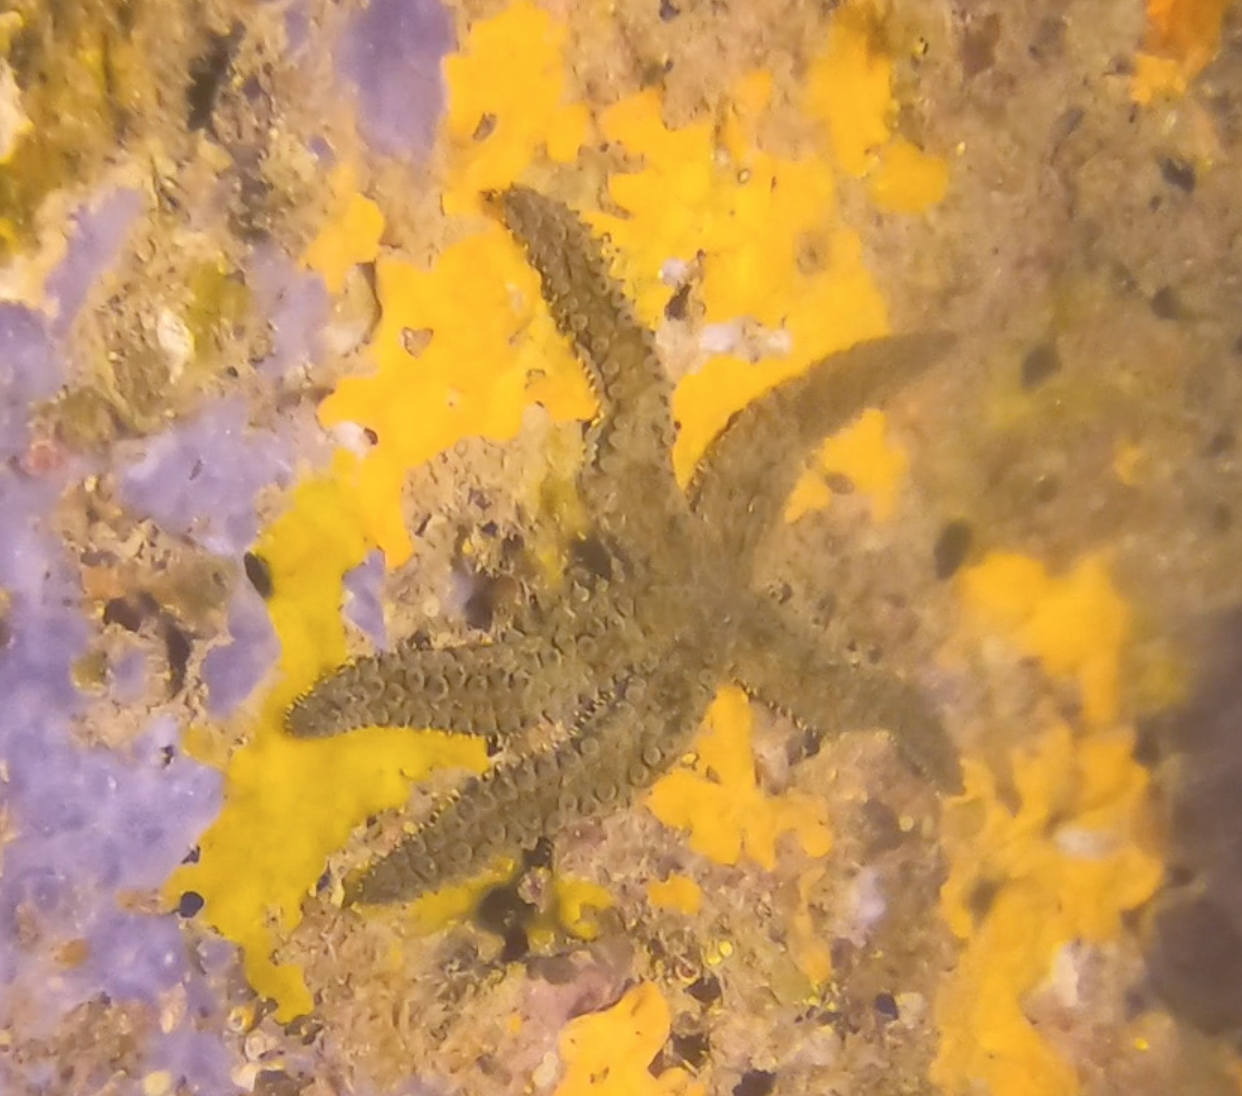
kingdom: Animalia
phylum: Echinodermata
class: Asteroidea
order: Forcipulatida
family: Asteriidae
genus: Marthasterias
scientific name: Marthasterias glacialis
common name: Spiny starfish
